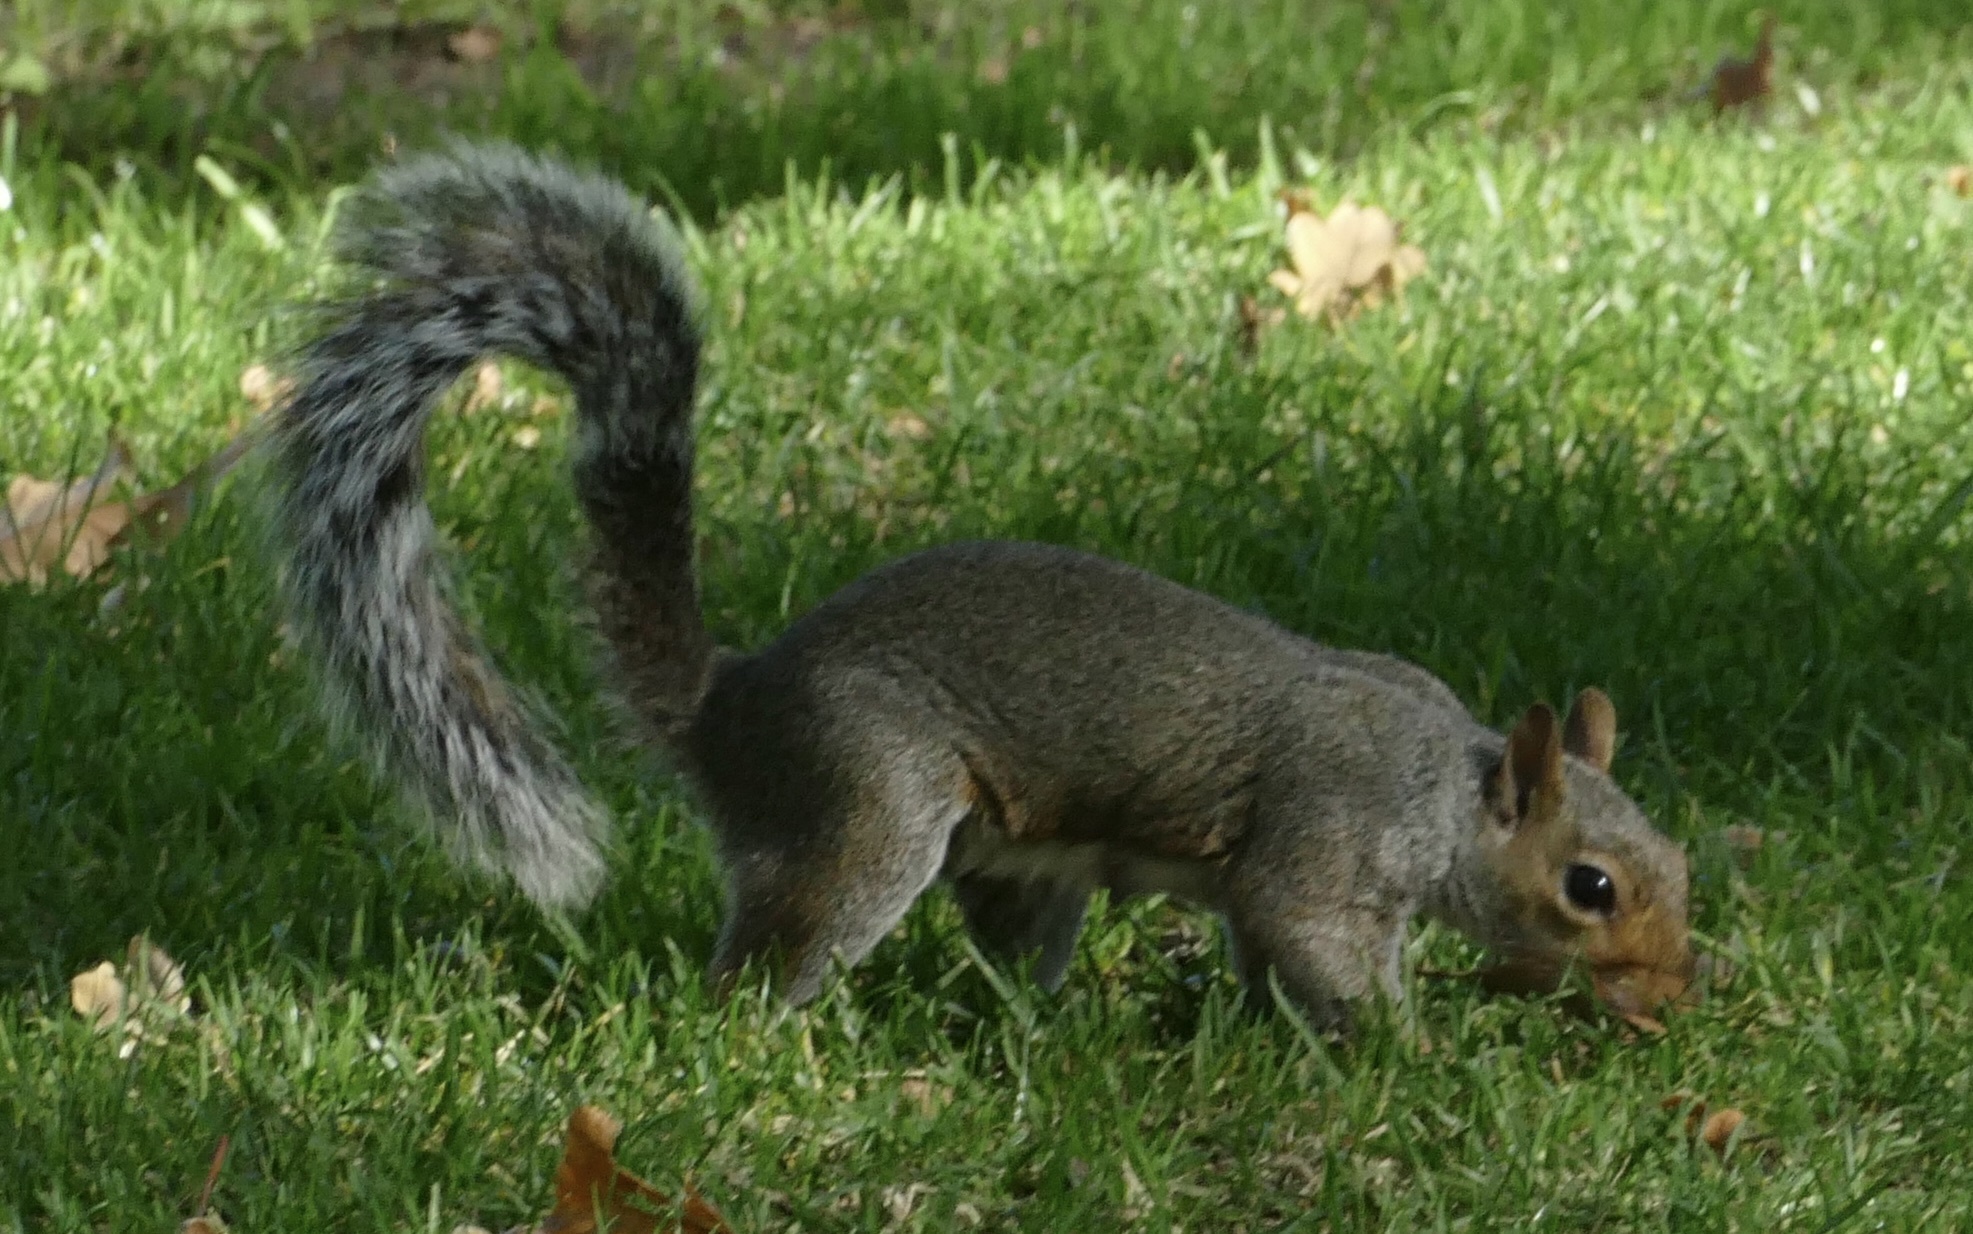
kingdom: Animalia
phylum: Chordata
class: Mammalia
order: Rodentia
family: Sciuridae
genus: Sciurus
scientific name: Sciurus carolinensis
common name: Eastern gray squirrel
